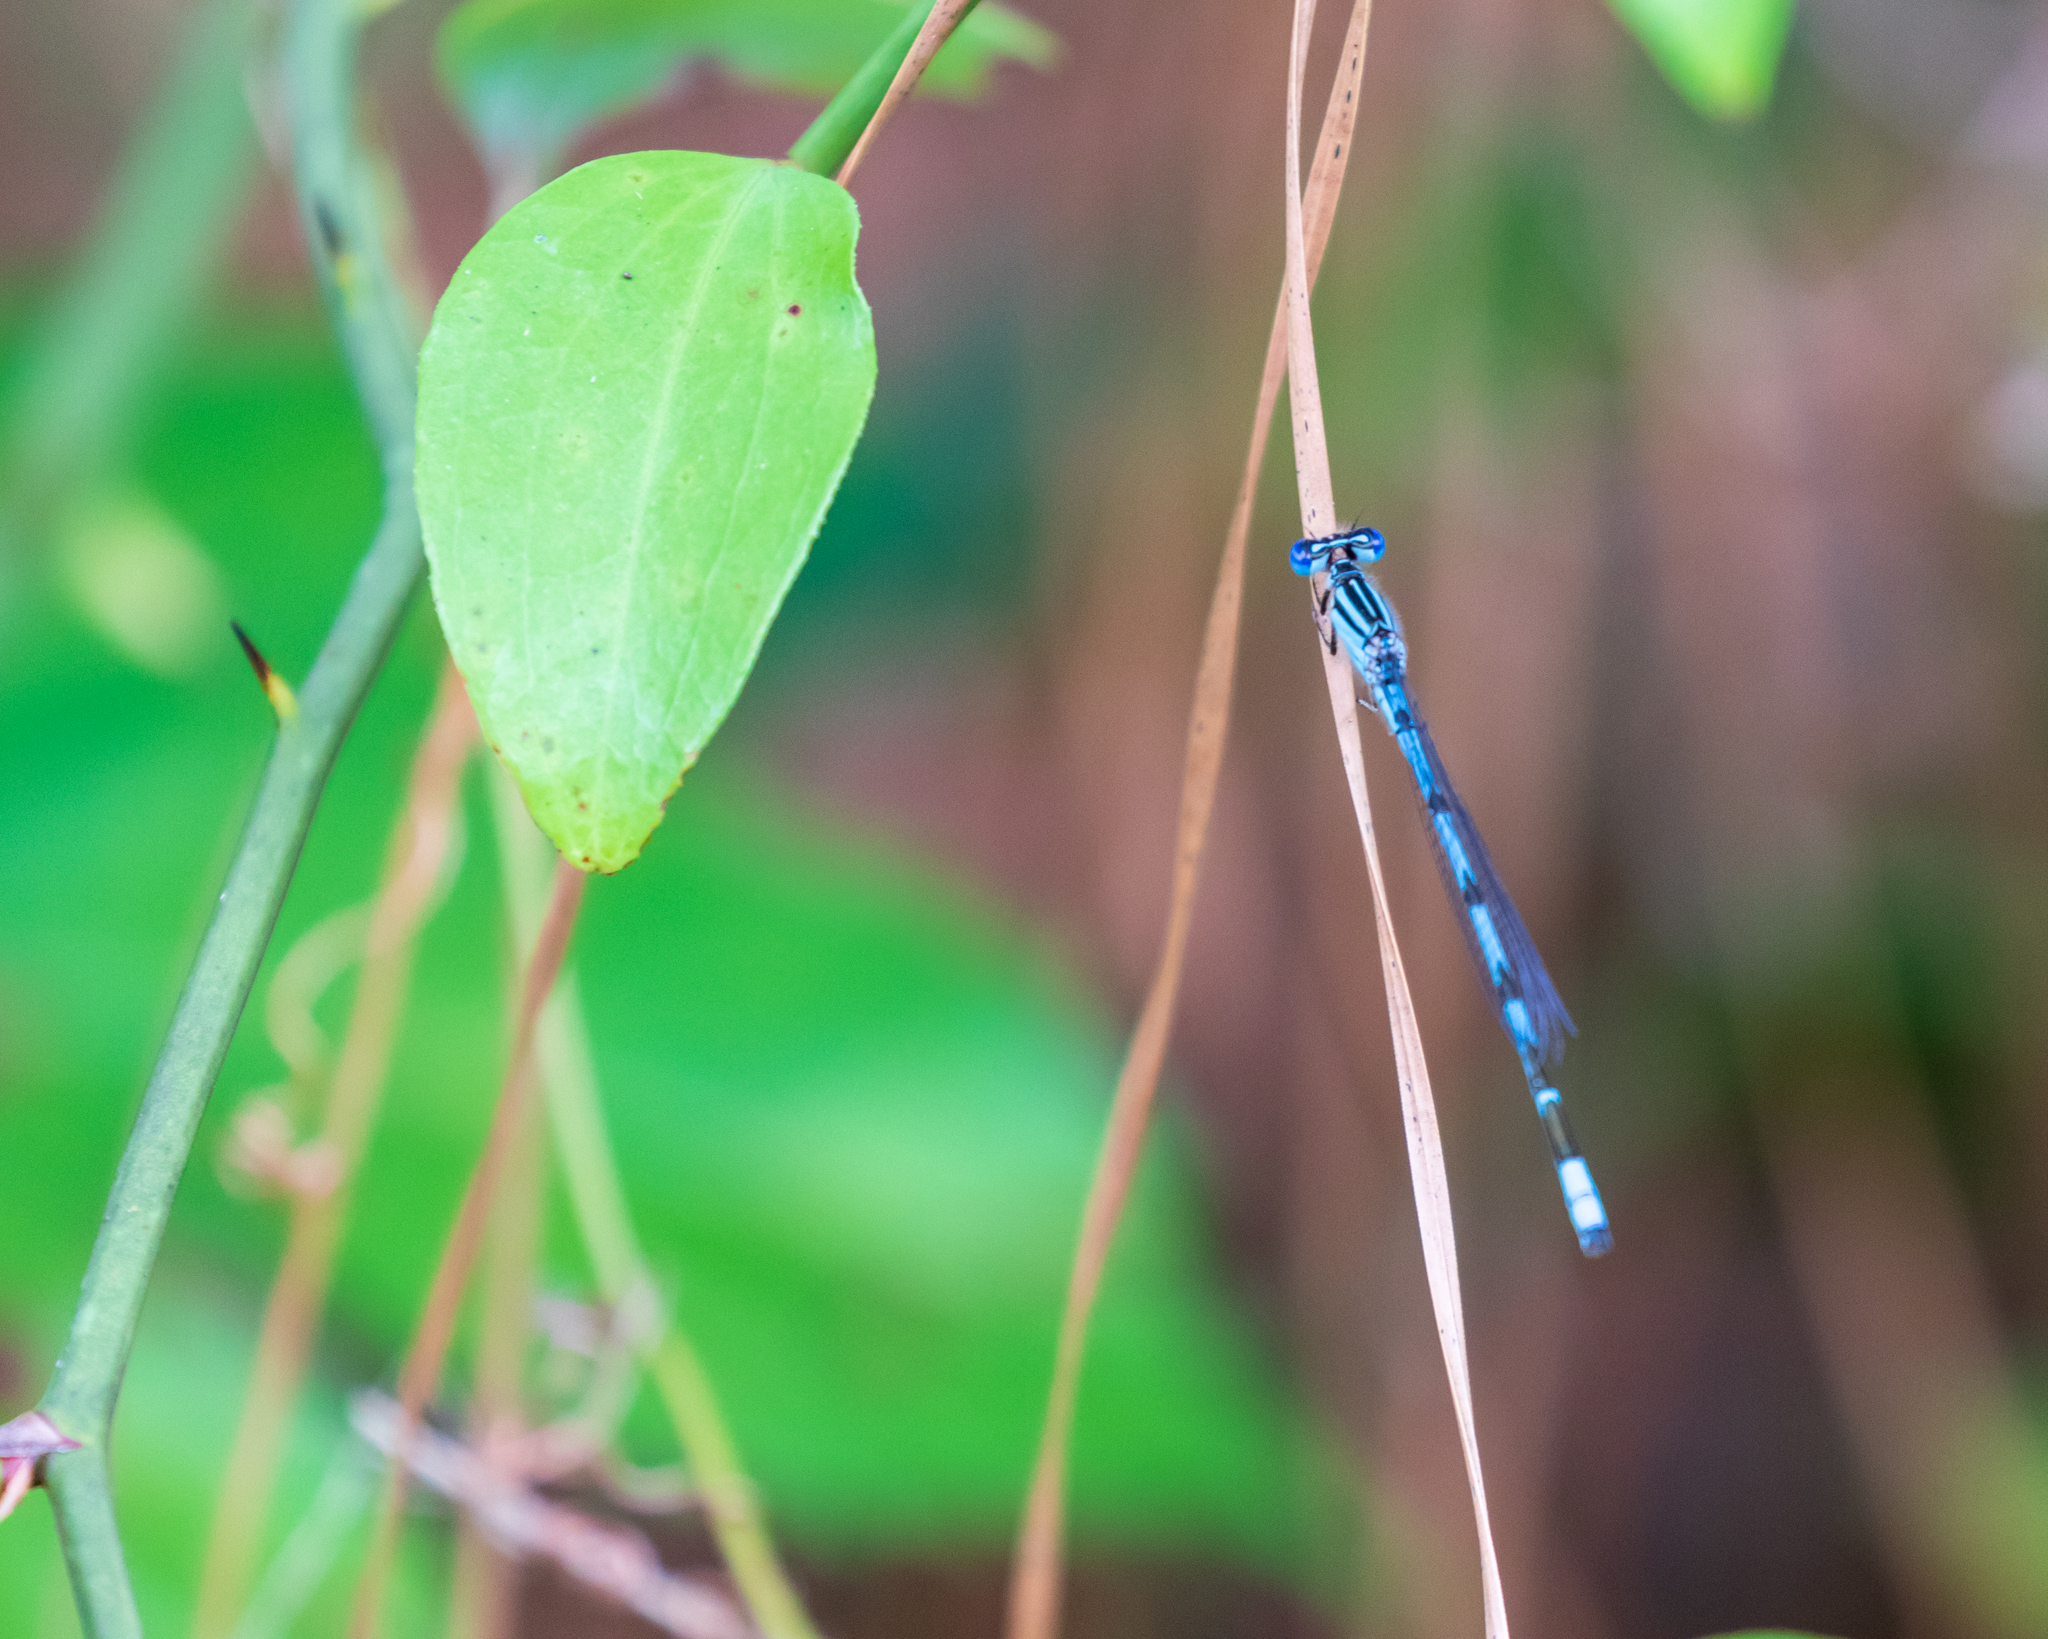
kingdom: Animalia
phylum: Arthropoda
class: Insecta
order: Odonata
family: Coenagrionidae
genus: Enallagma
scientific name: Enallagma durum
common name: Big bluet
